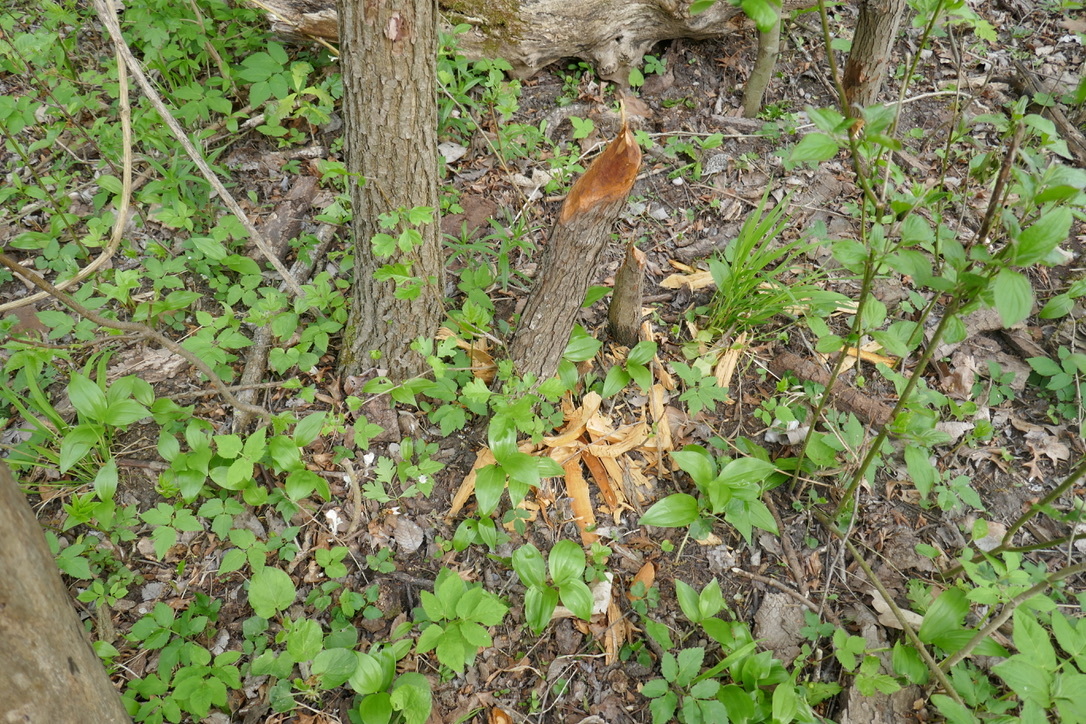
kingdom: Animalia
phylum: Chordata
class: Mammalia
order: Rodentia
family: Castoridae
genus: Castor
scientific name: Castor fiber
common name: Eurasian beaver
